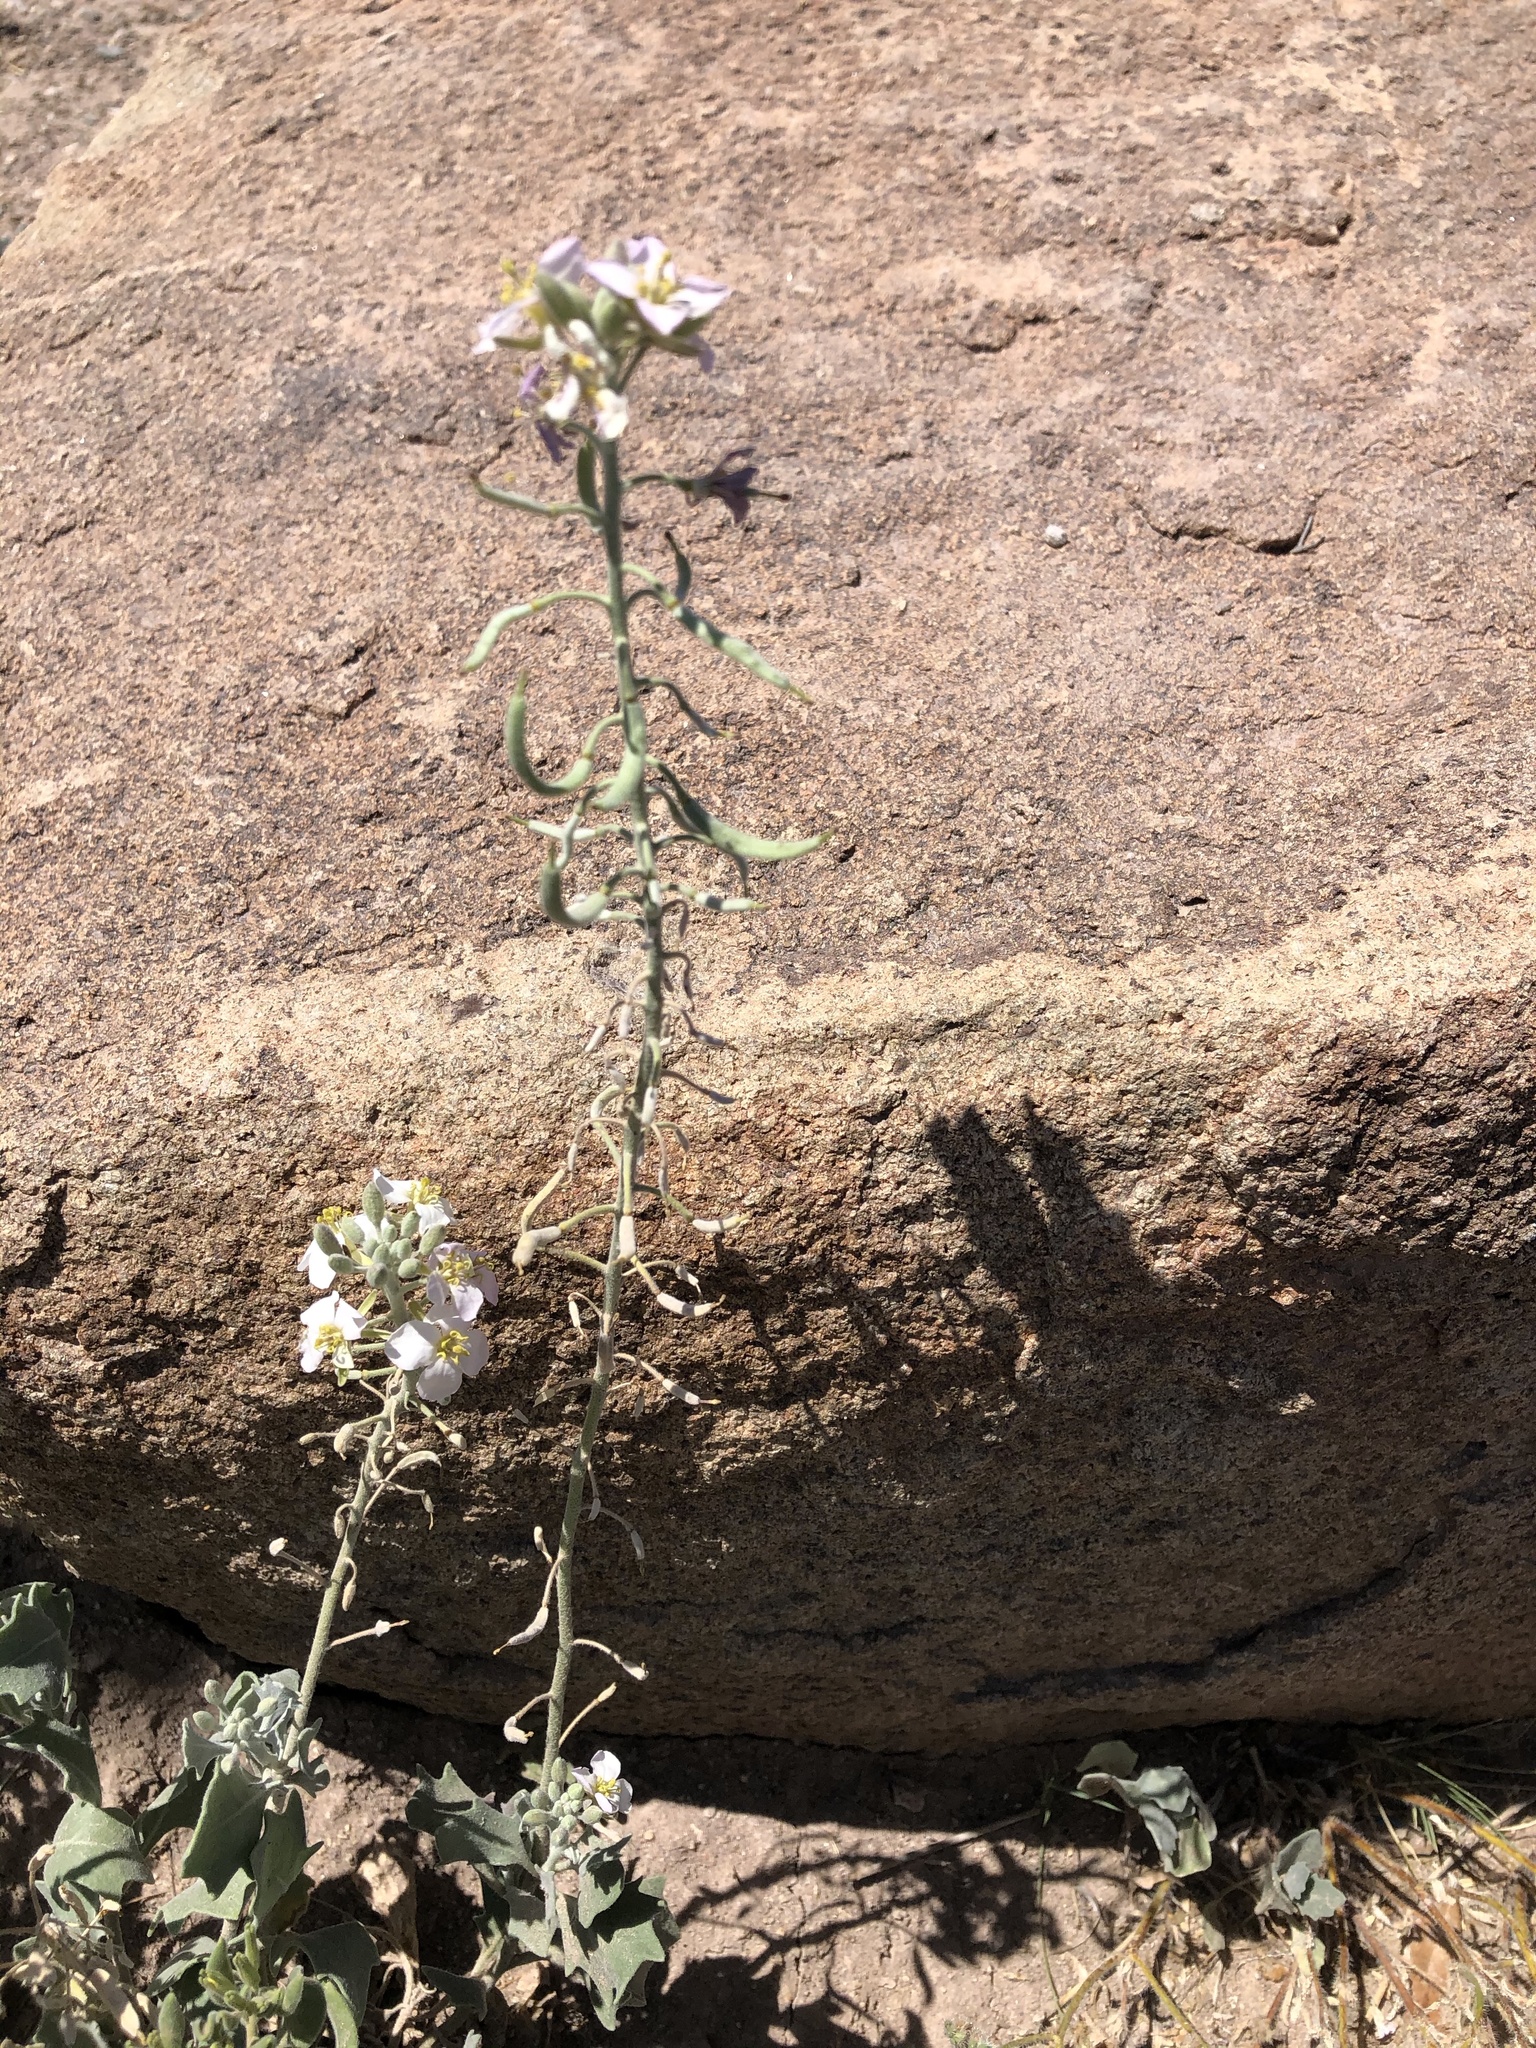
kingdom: Plantae
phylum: Tracheophyta
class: Magnoliopsida
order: Brassicales
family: Brassicaceae
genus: Nerisyrenia
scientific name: Nerisyrenia camporum
